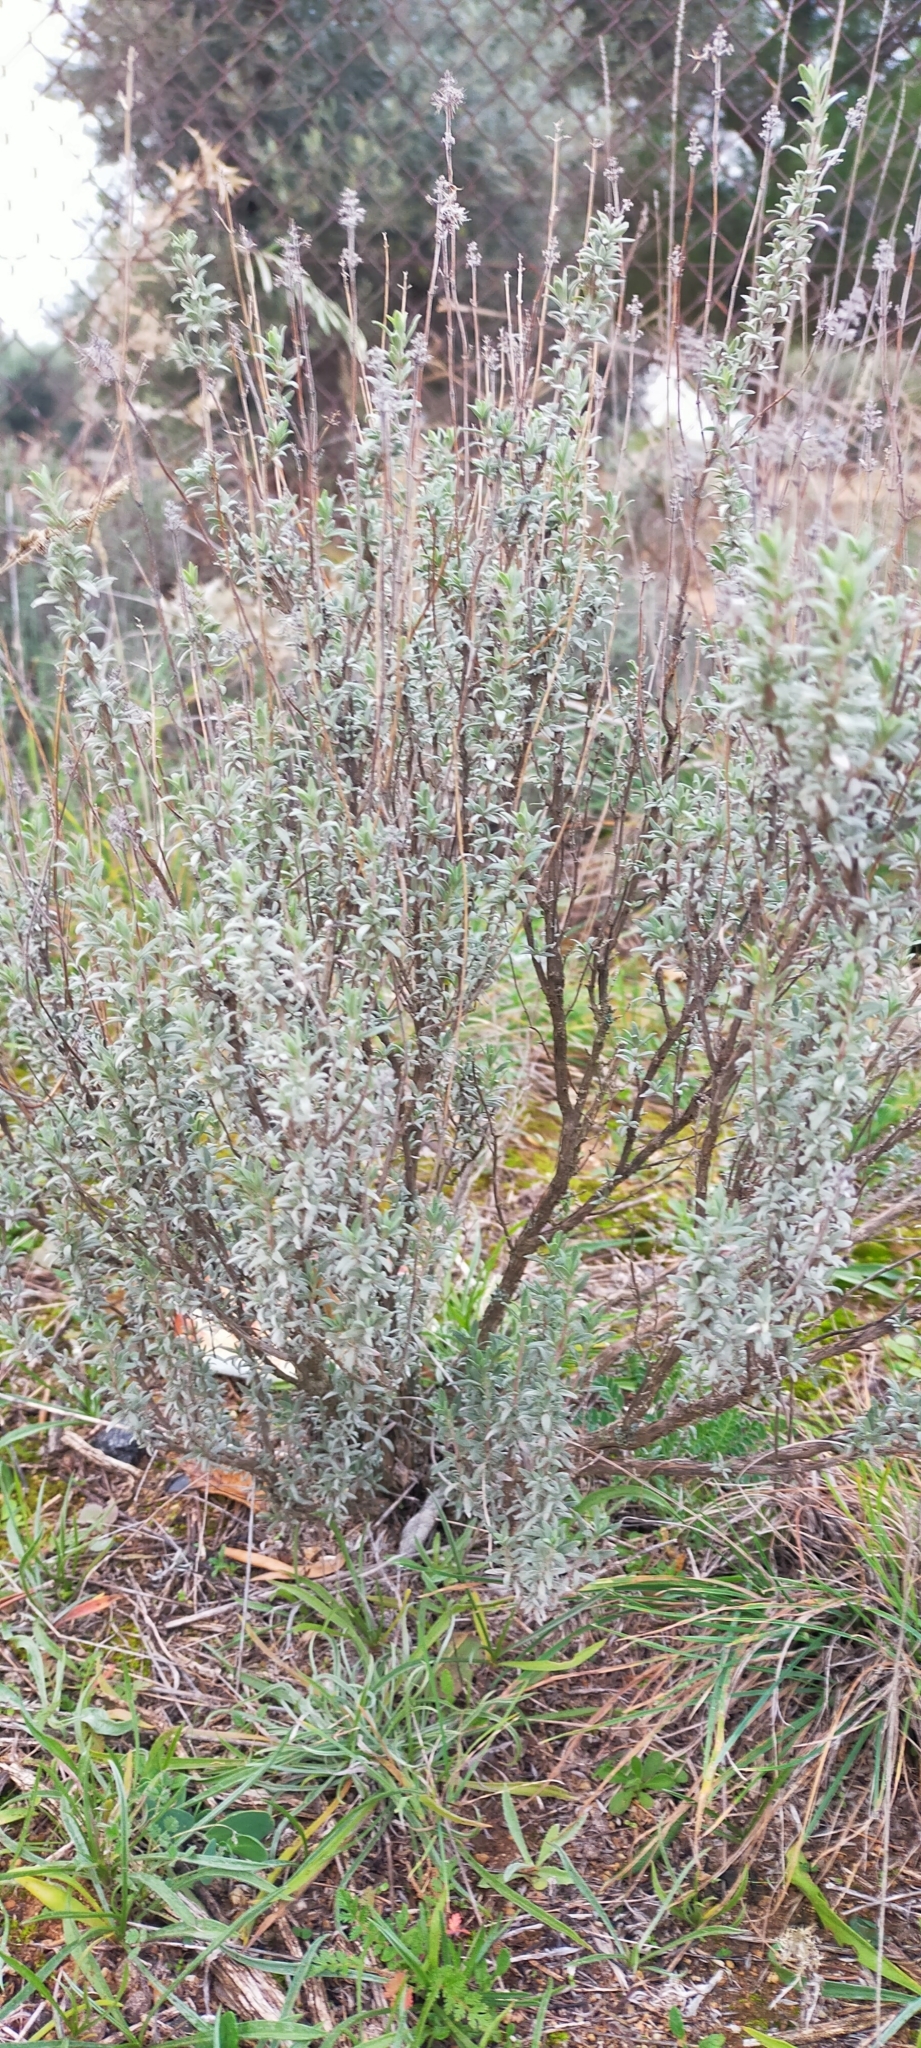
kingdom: Plantae
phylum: Tracheophyta
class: Magnoliopsida
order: Lamiales
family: Lamiaceae
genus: Thymus
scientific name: Thymus mastichina
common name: Mastic thyme
